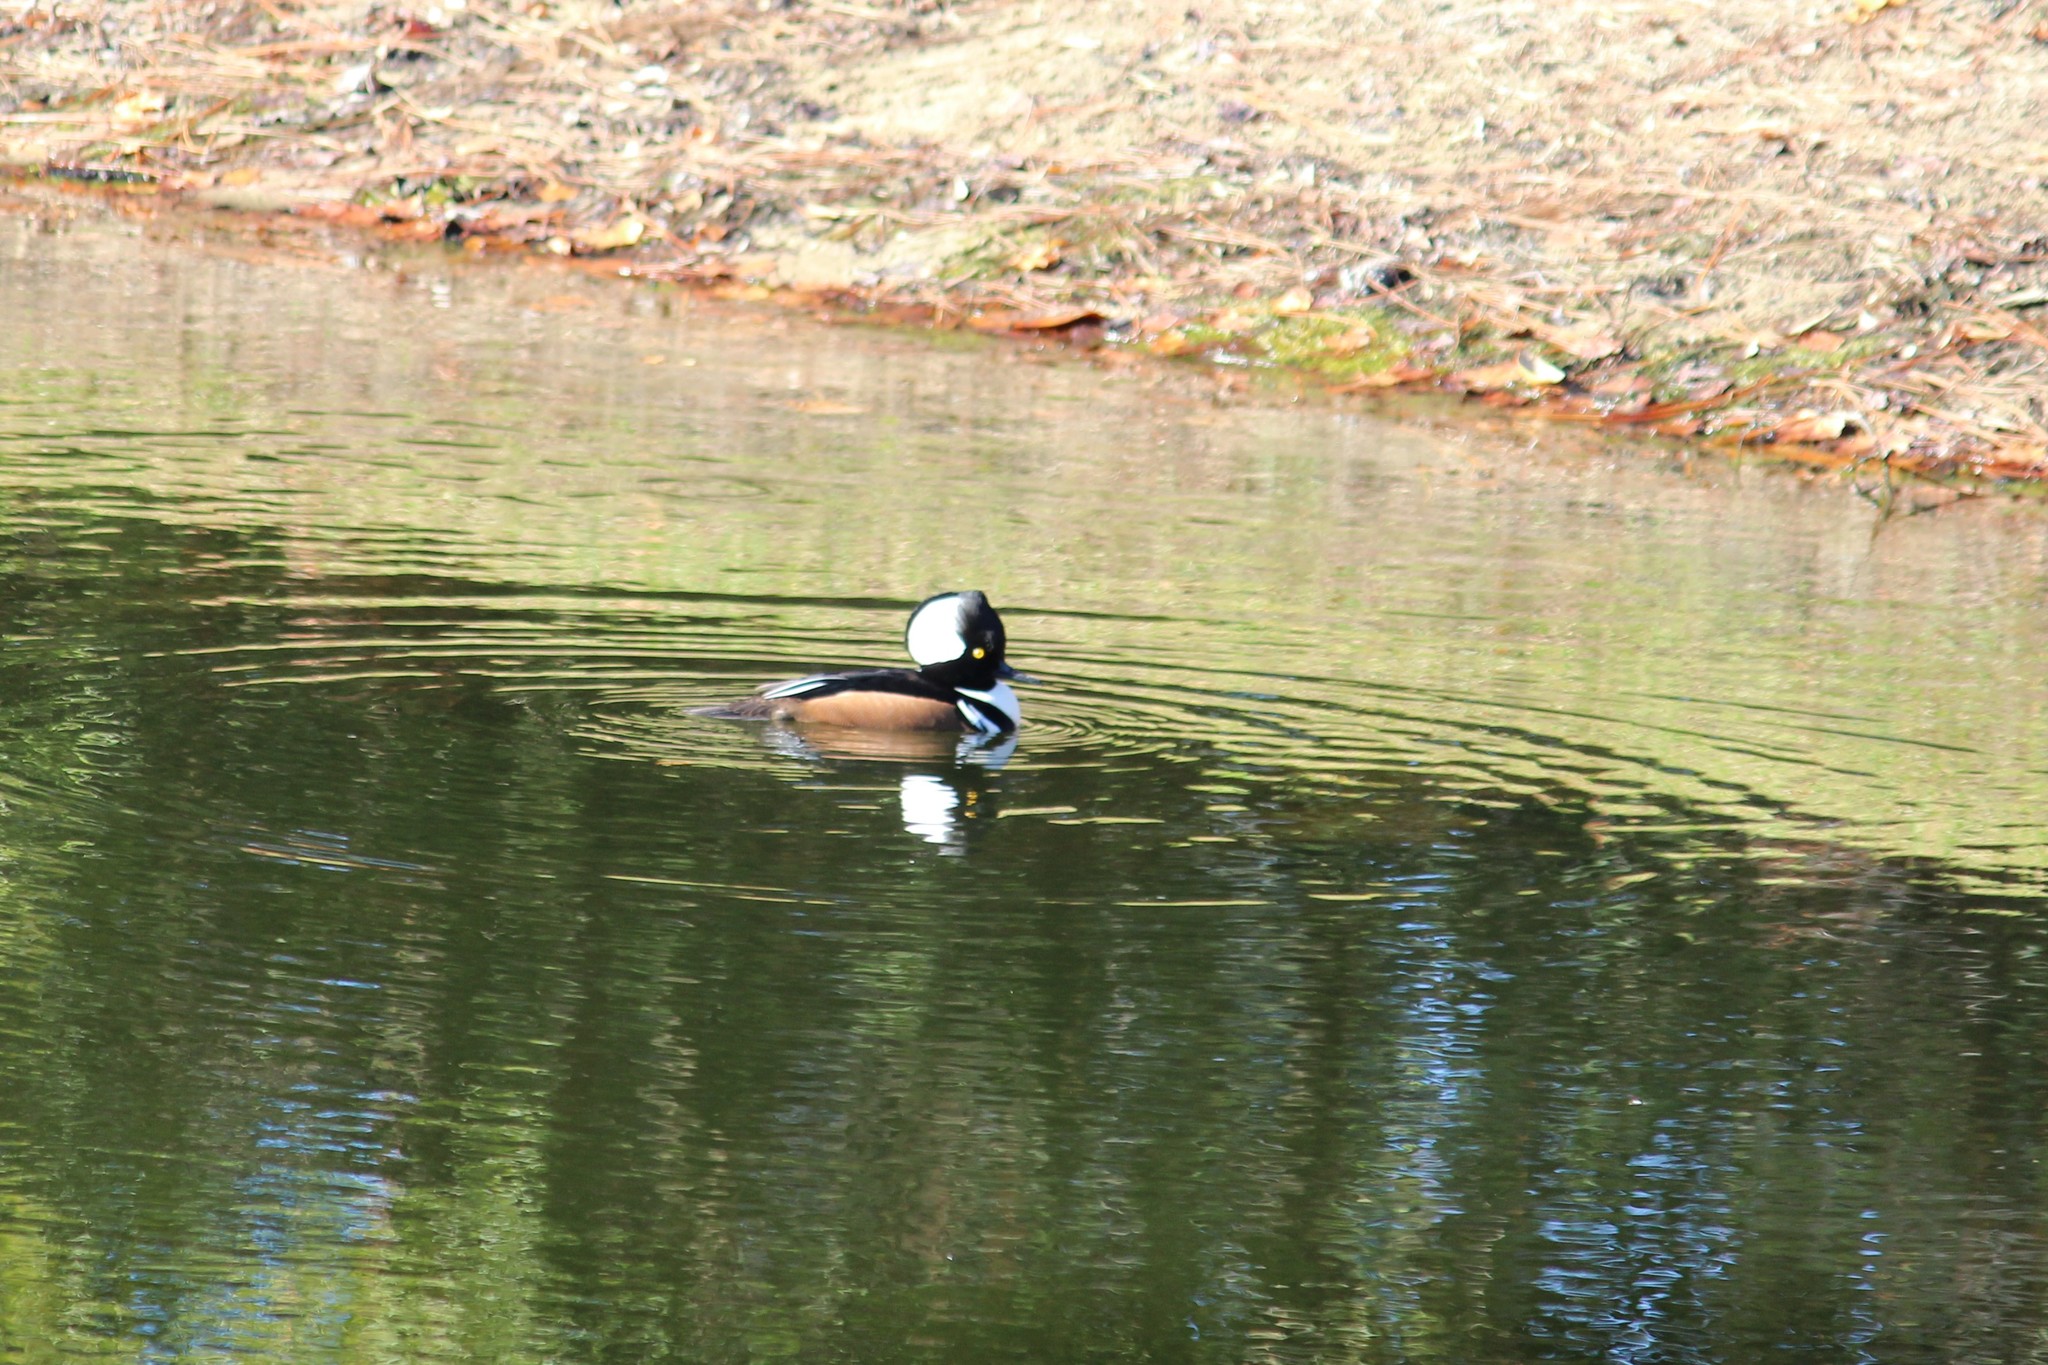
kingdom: Animalia
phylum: Chordata
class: Aves
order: Anseriformes
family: Anatidae
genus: Lophodytes
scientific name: Lophodytes cucullatus
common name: Hooded merganser
